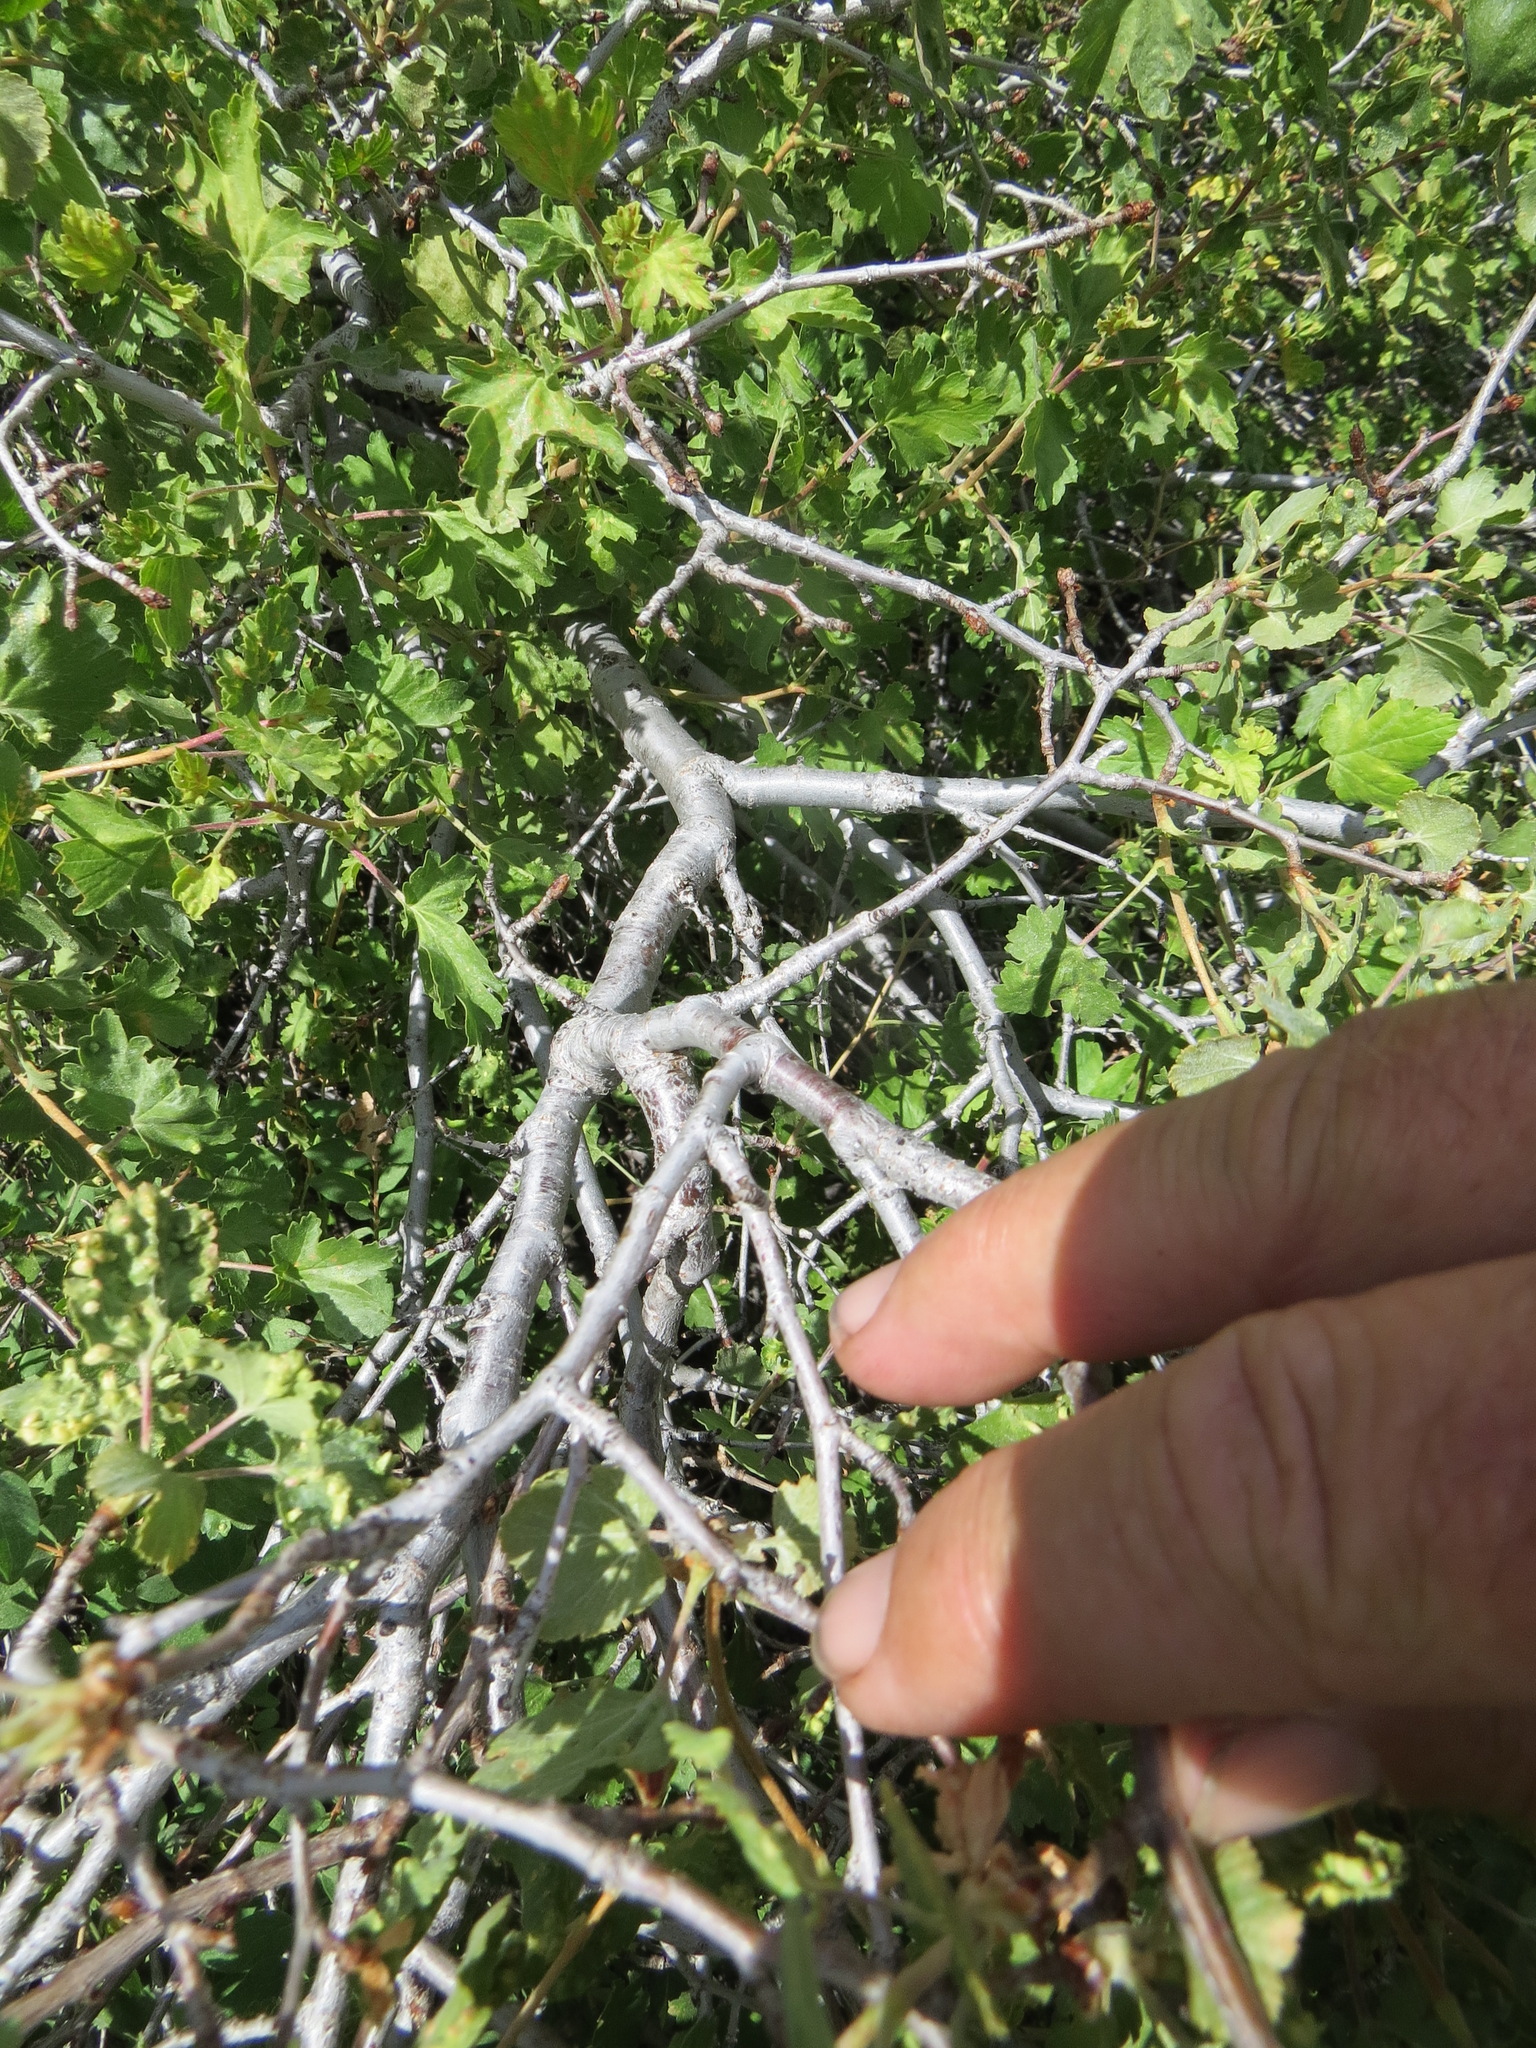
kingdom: Plantae
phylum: Tracheophyta
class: Magnoliopsida
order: Saxifragales
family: Grossulariaceae
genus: Ribes
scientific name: Ribes cereum
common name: Wax currant
